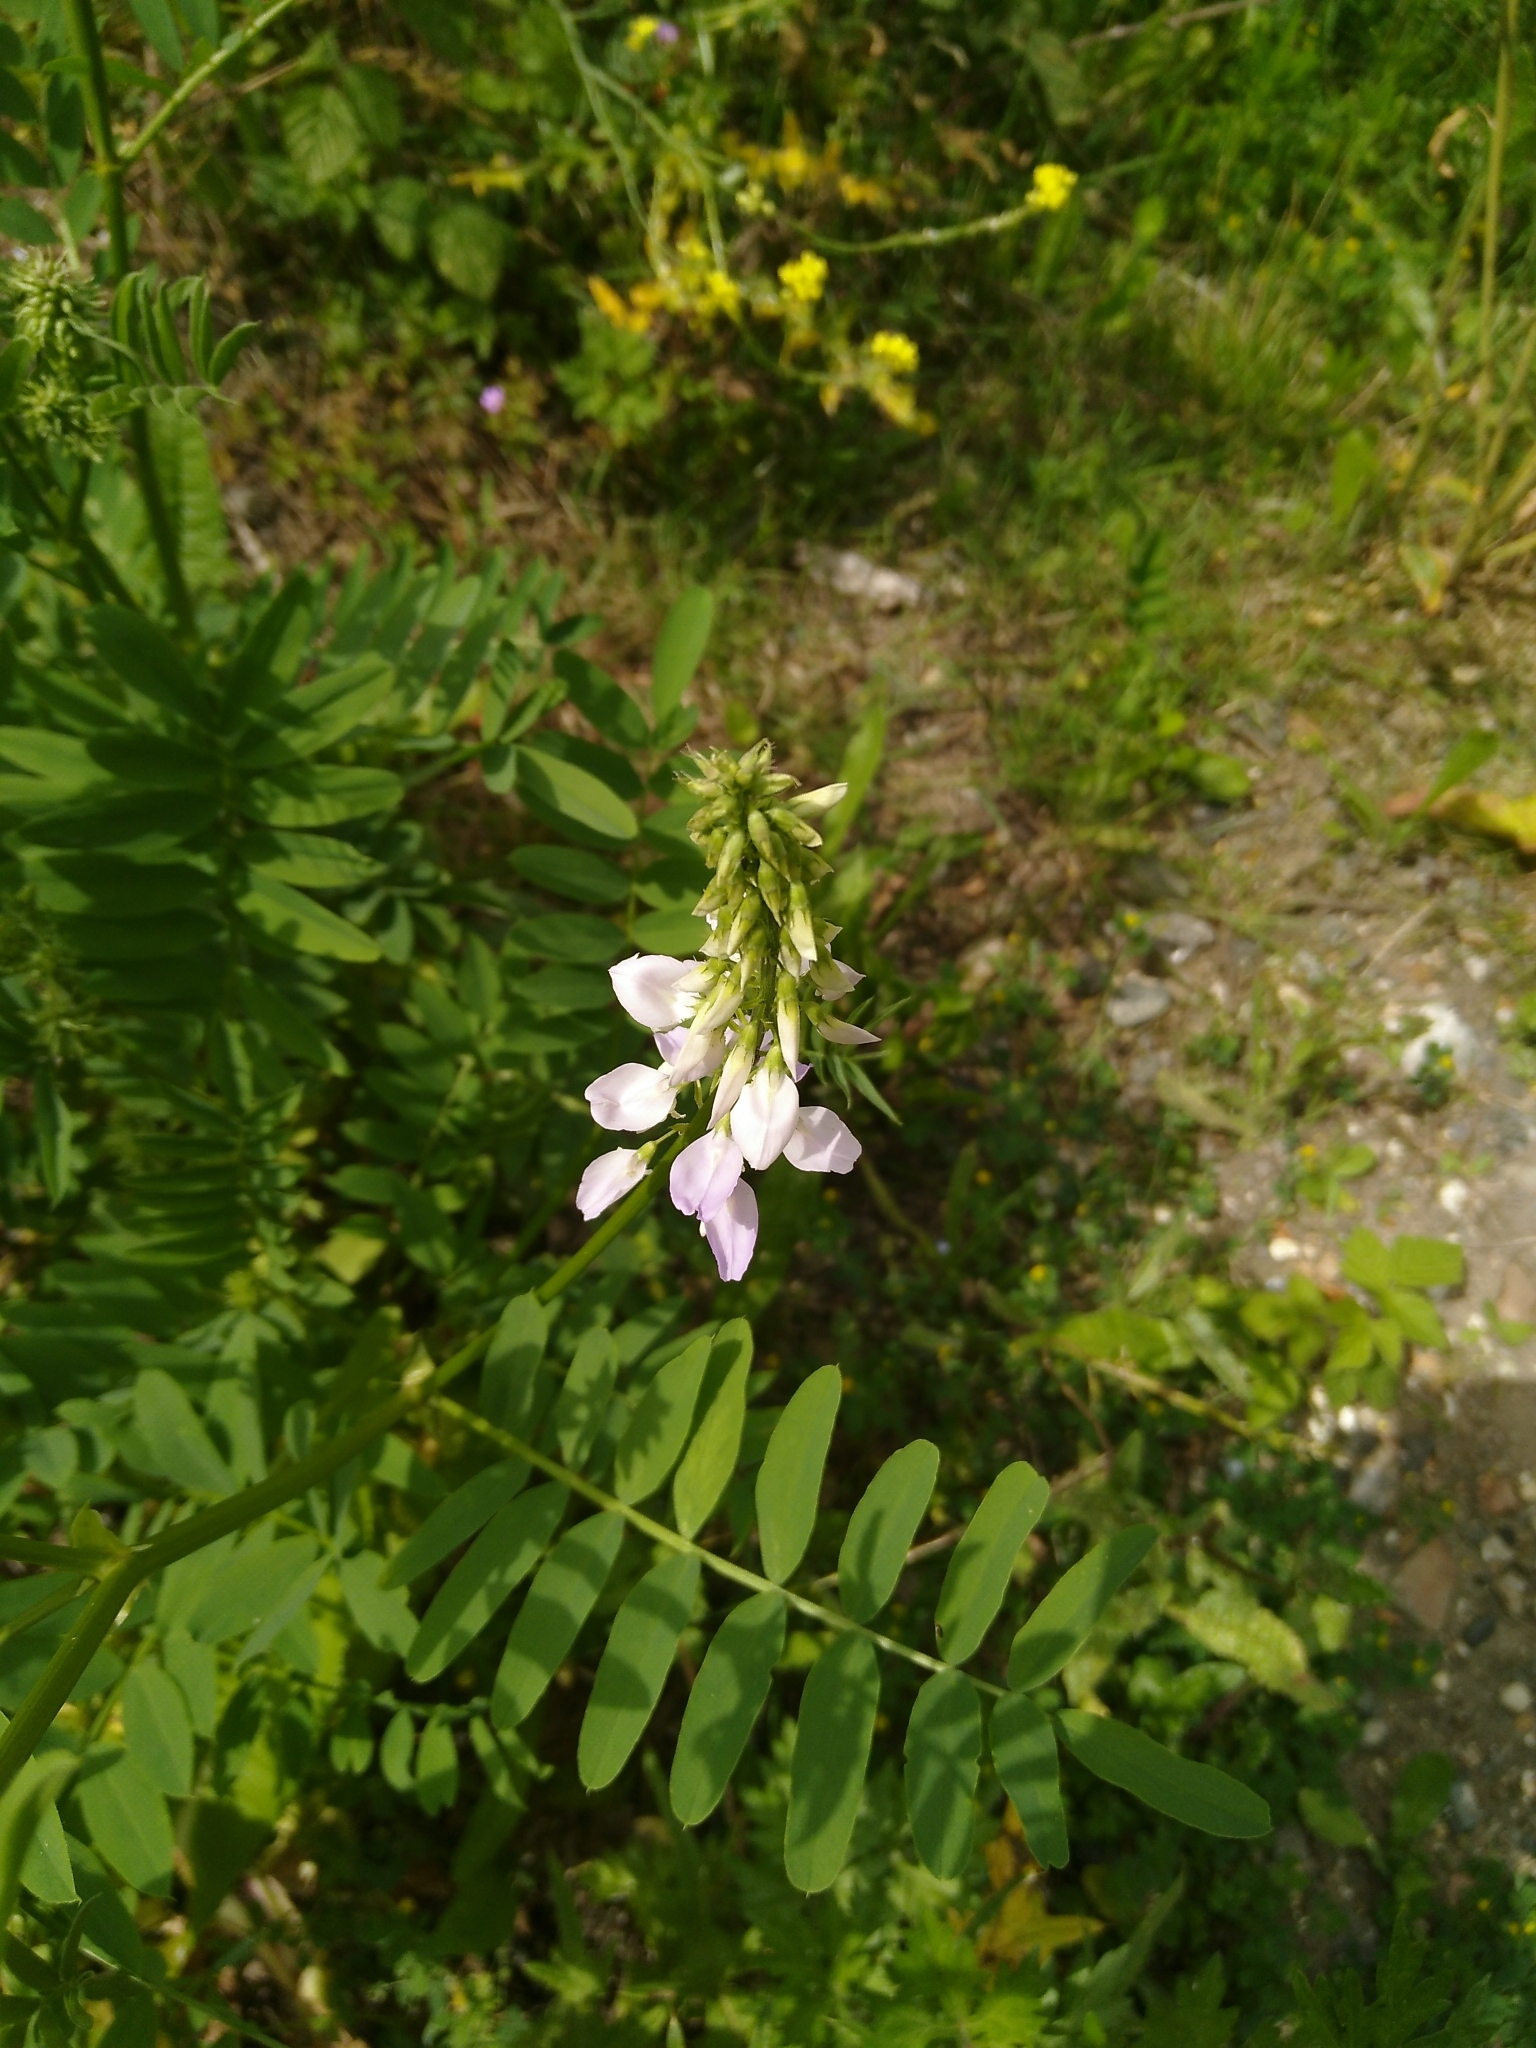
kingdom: Plantae
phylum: Tracheophyta
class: Magnoliopsida
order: Fabales
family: Fabaceae
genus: Galega
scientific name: Galega officinalis
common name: Goat's-rue
